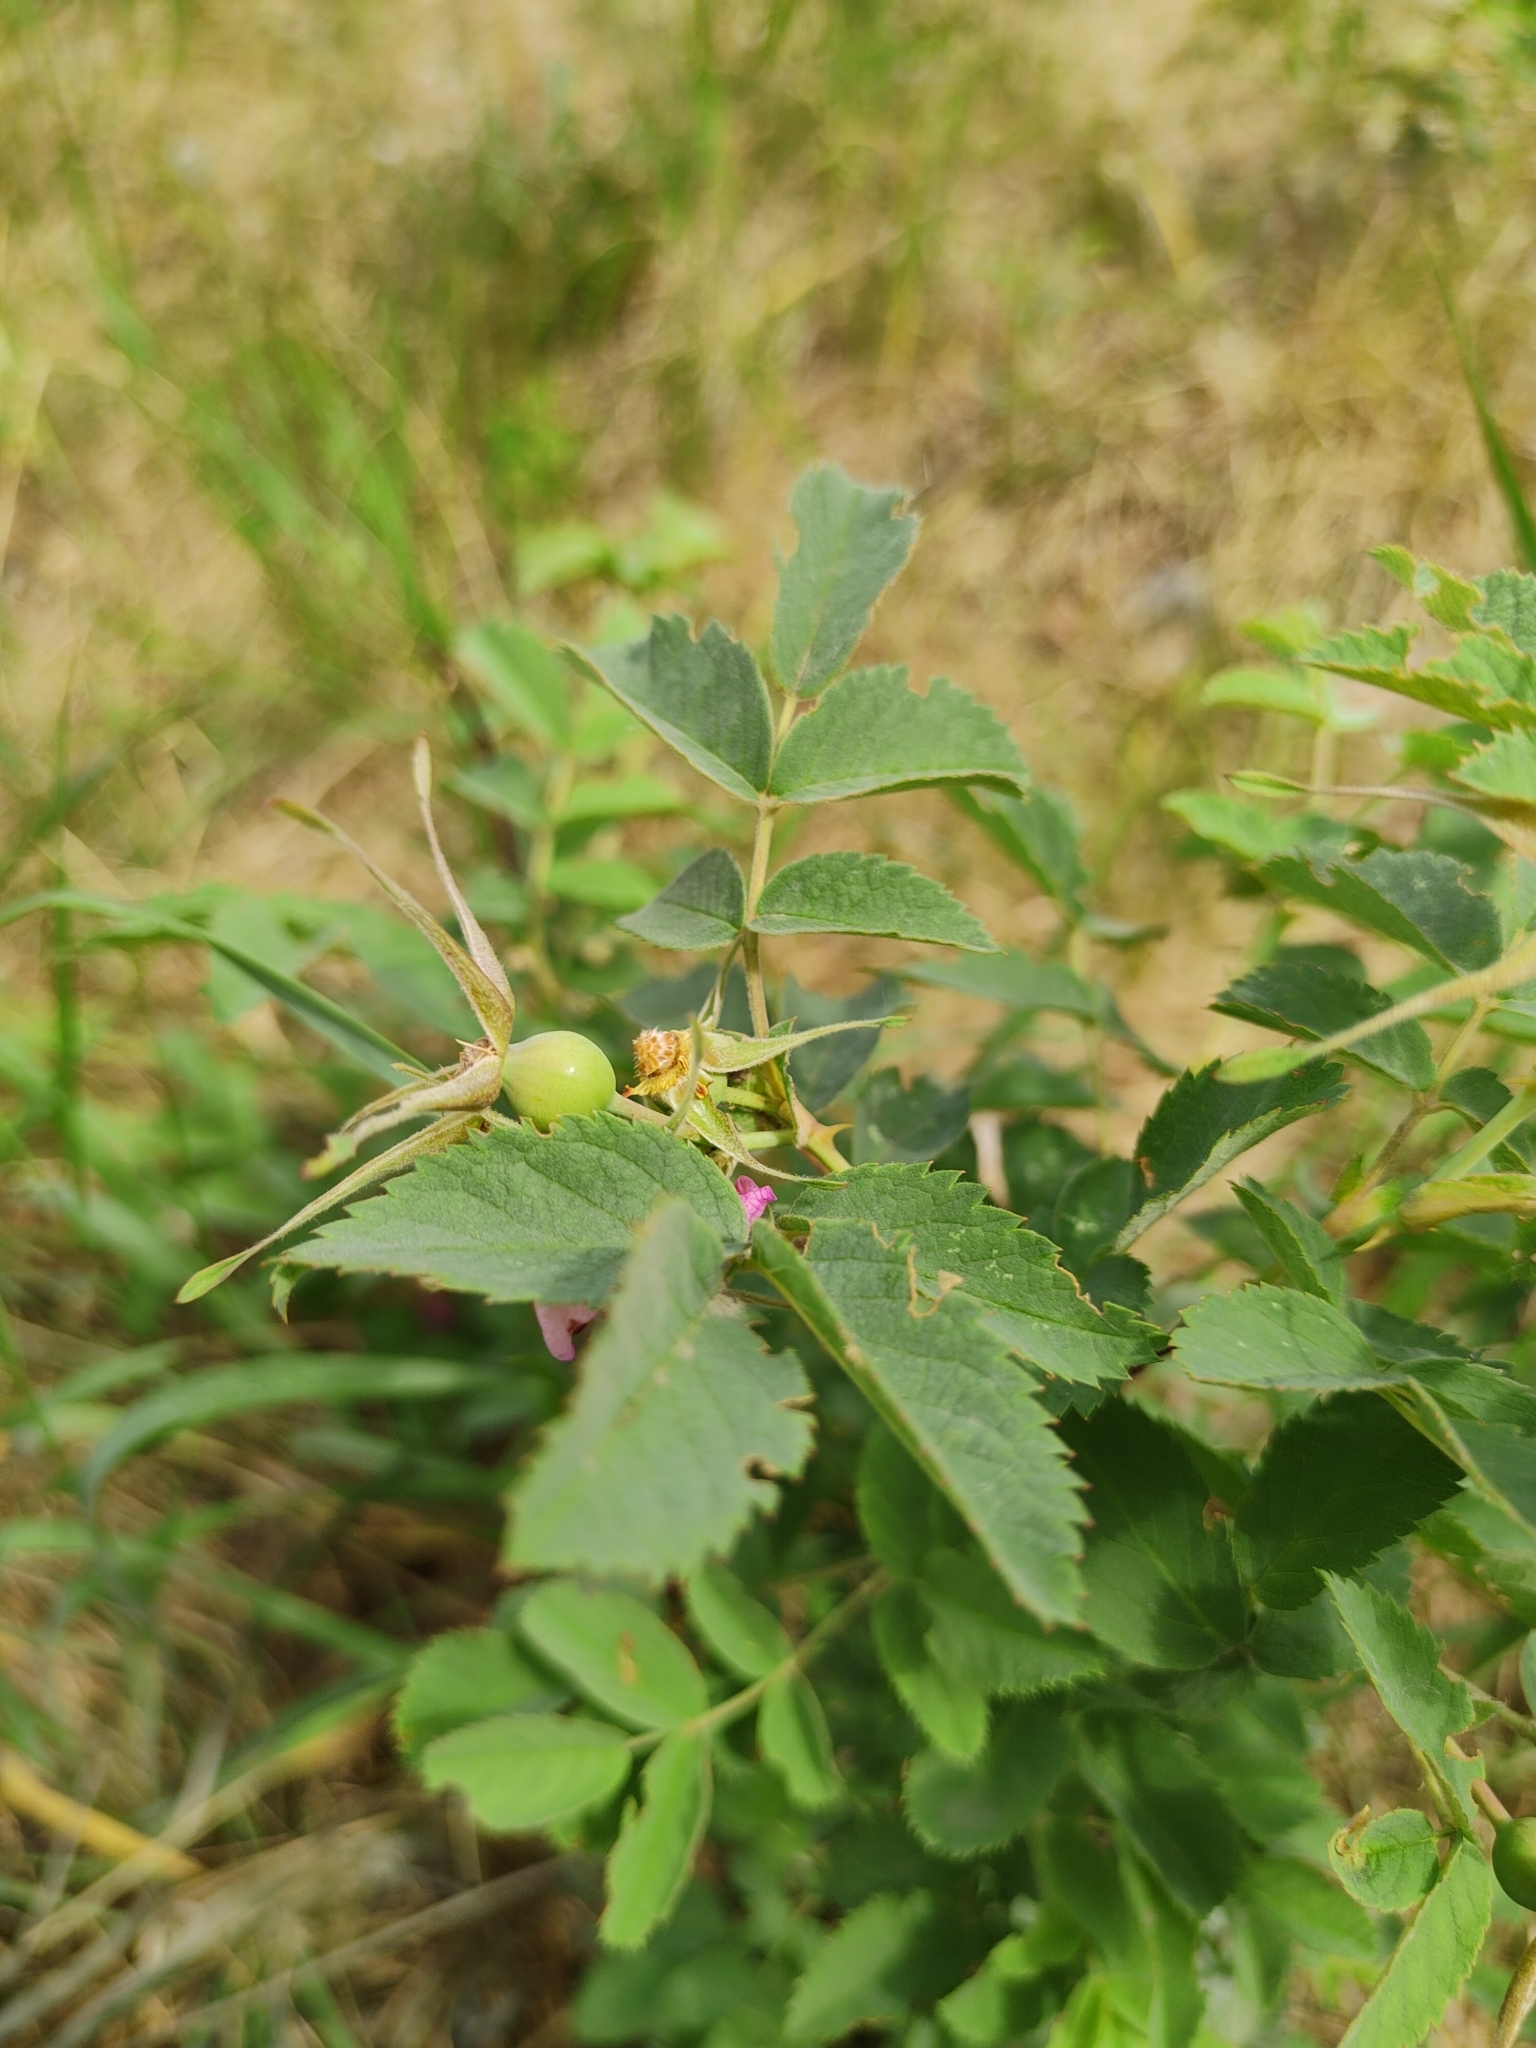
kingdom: Plantae
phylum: Tracheophyta
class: Magnoliopsida
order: Rosales
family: Rosaceae
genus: Rosa
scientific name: Rosa majalis
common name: Cinnamon rose
